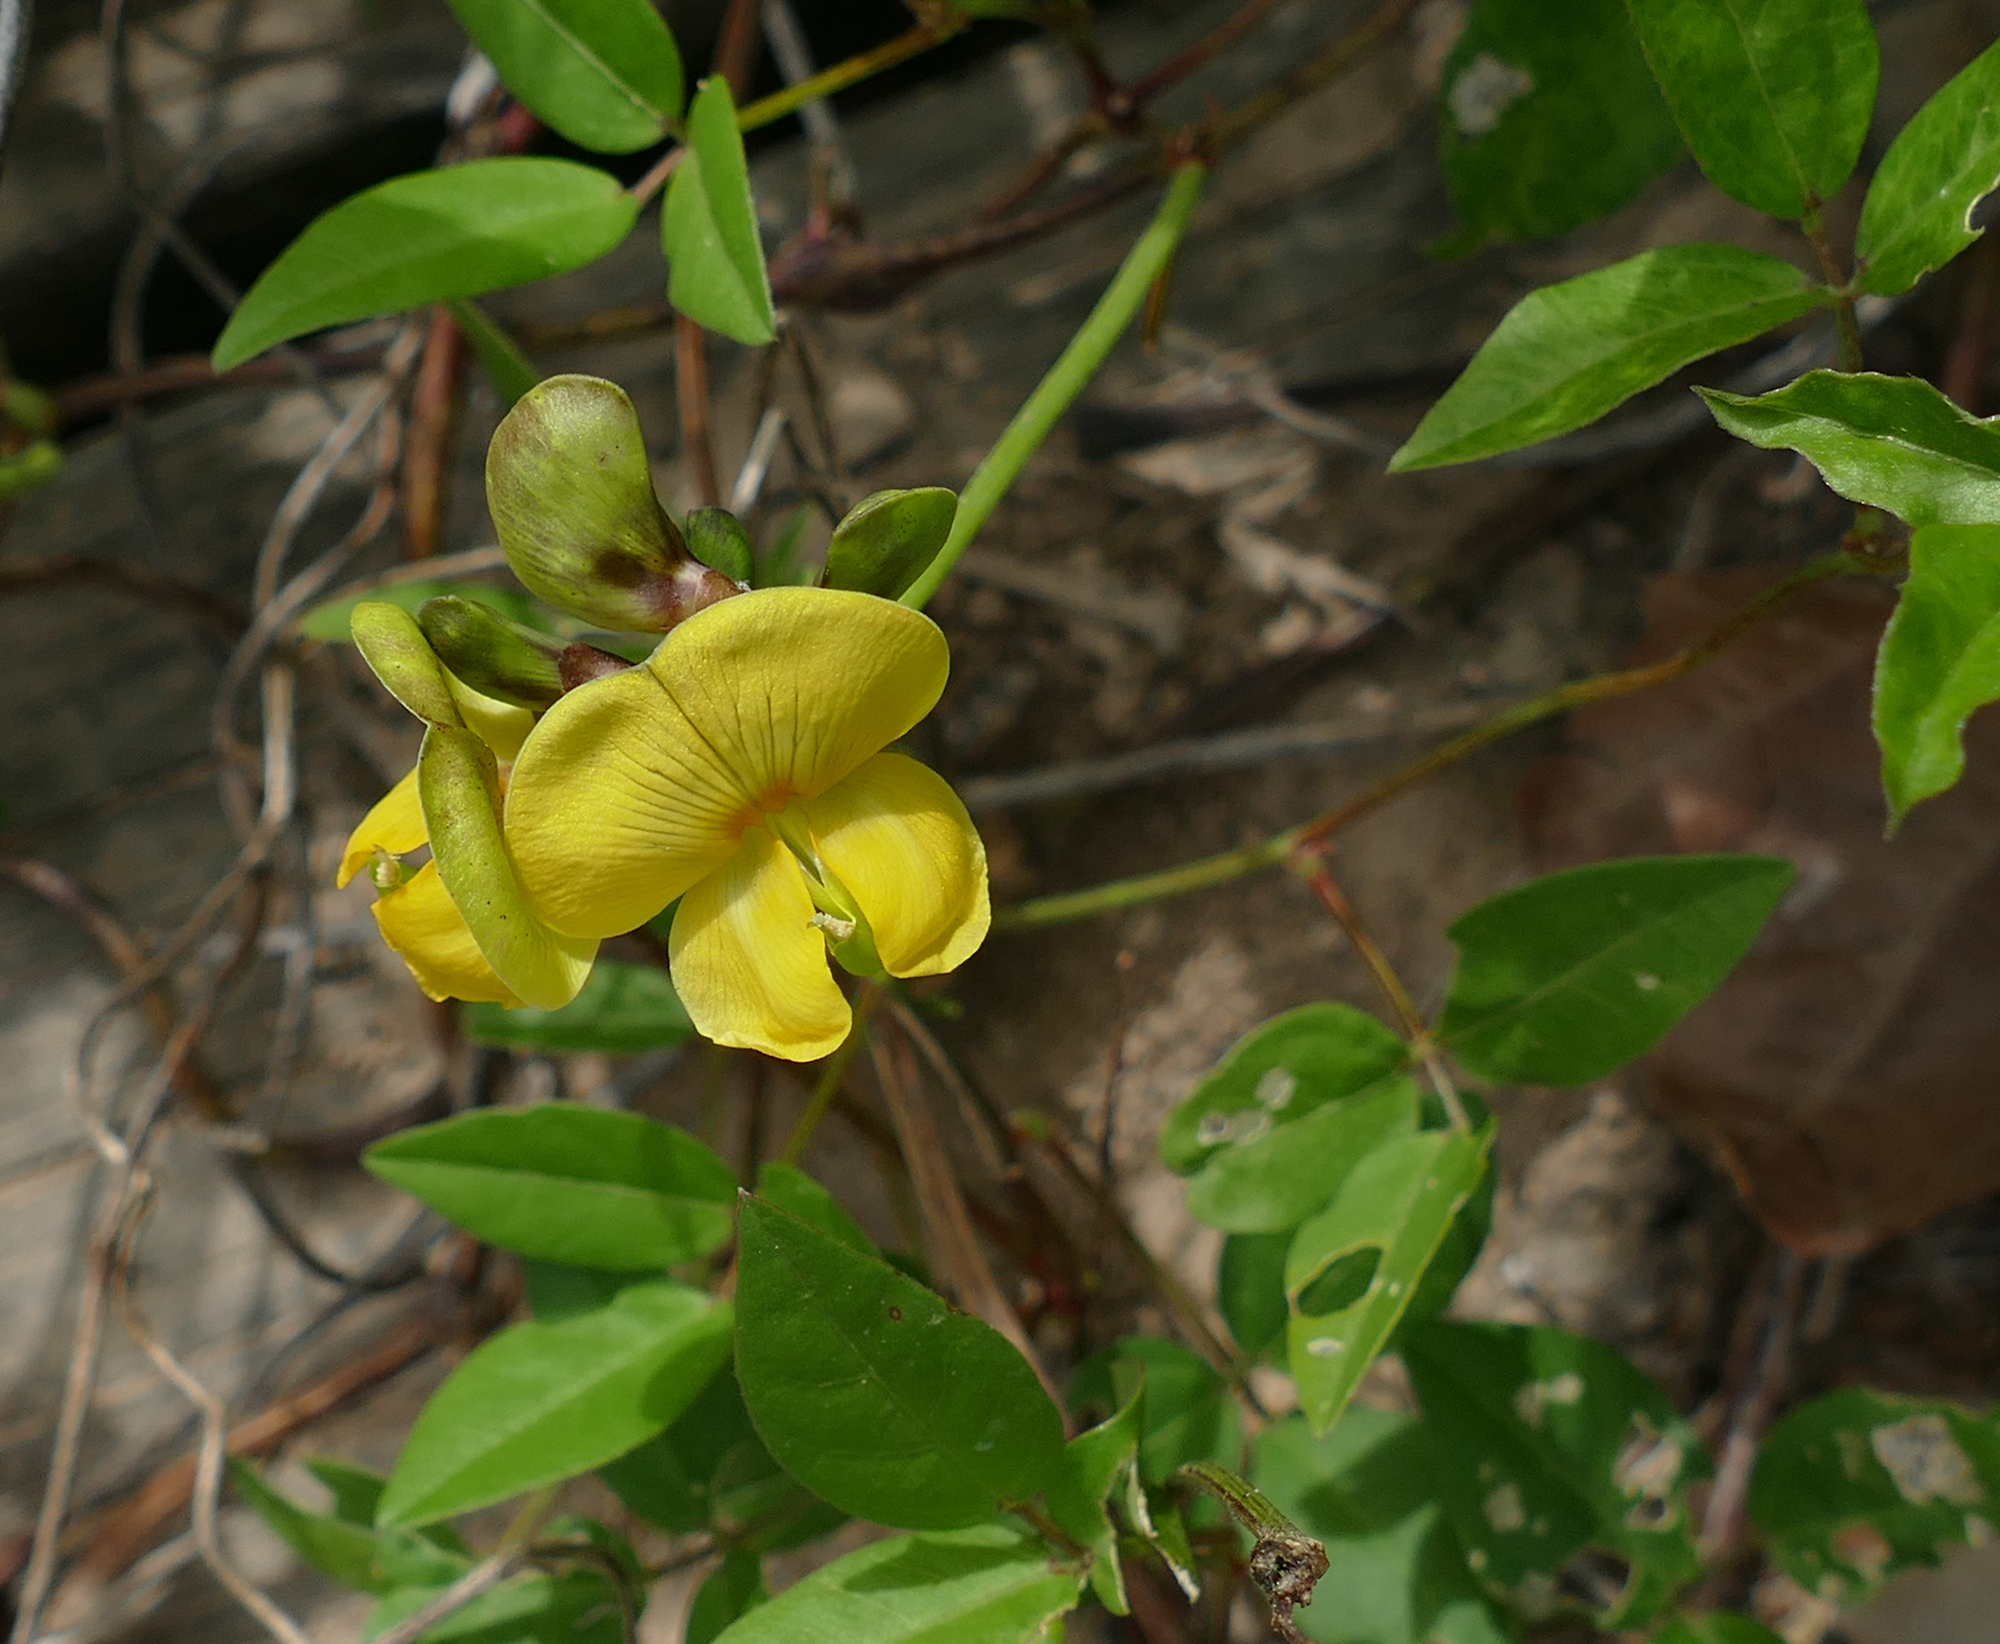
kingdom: Plantae
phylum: Tracheophyta
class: Magnoliopsida
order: Fabales
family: Fabaceae
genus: Vigna
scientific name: Vigna luteola
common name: Hairypod cowpea
